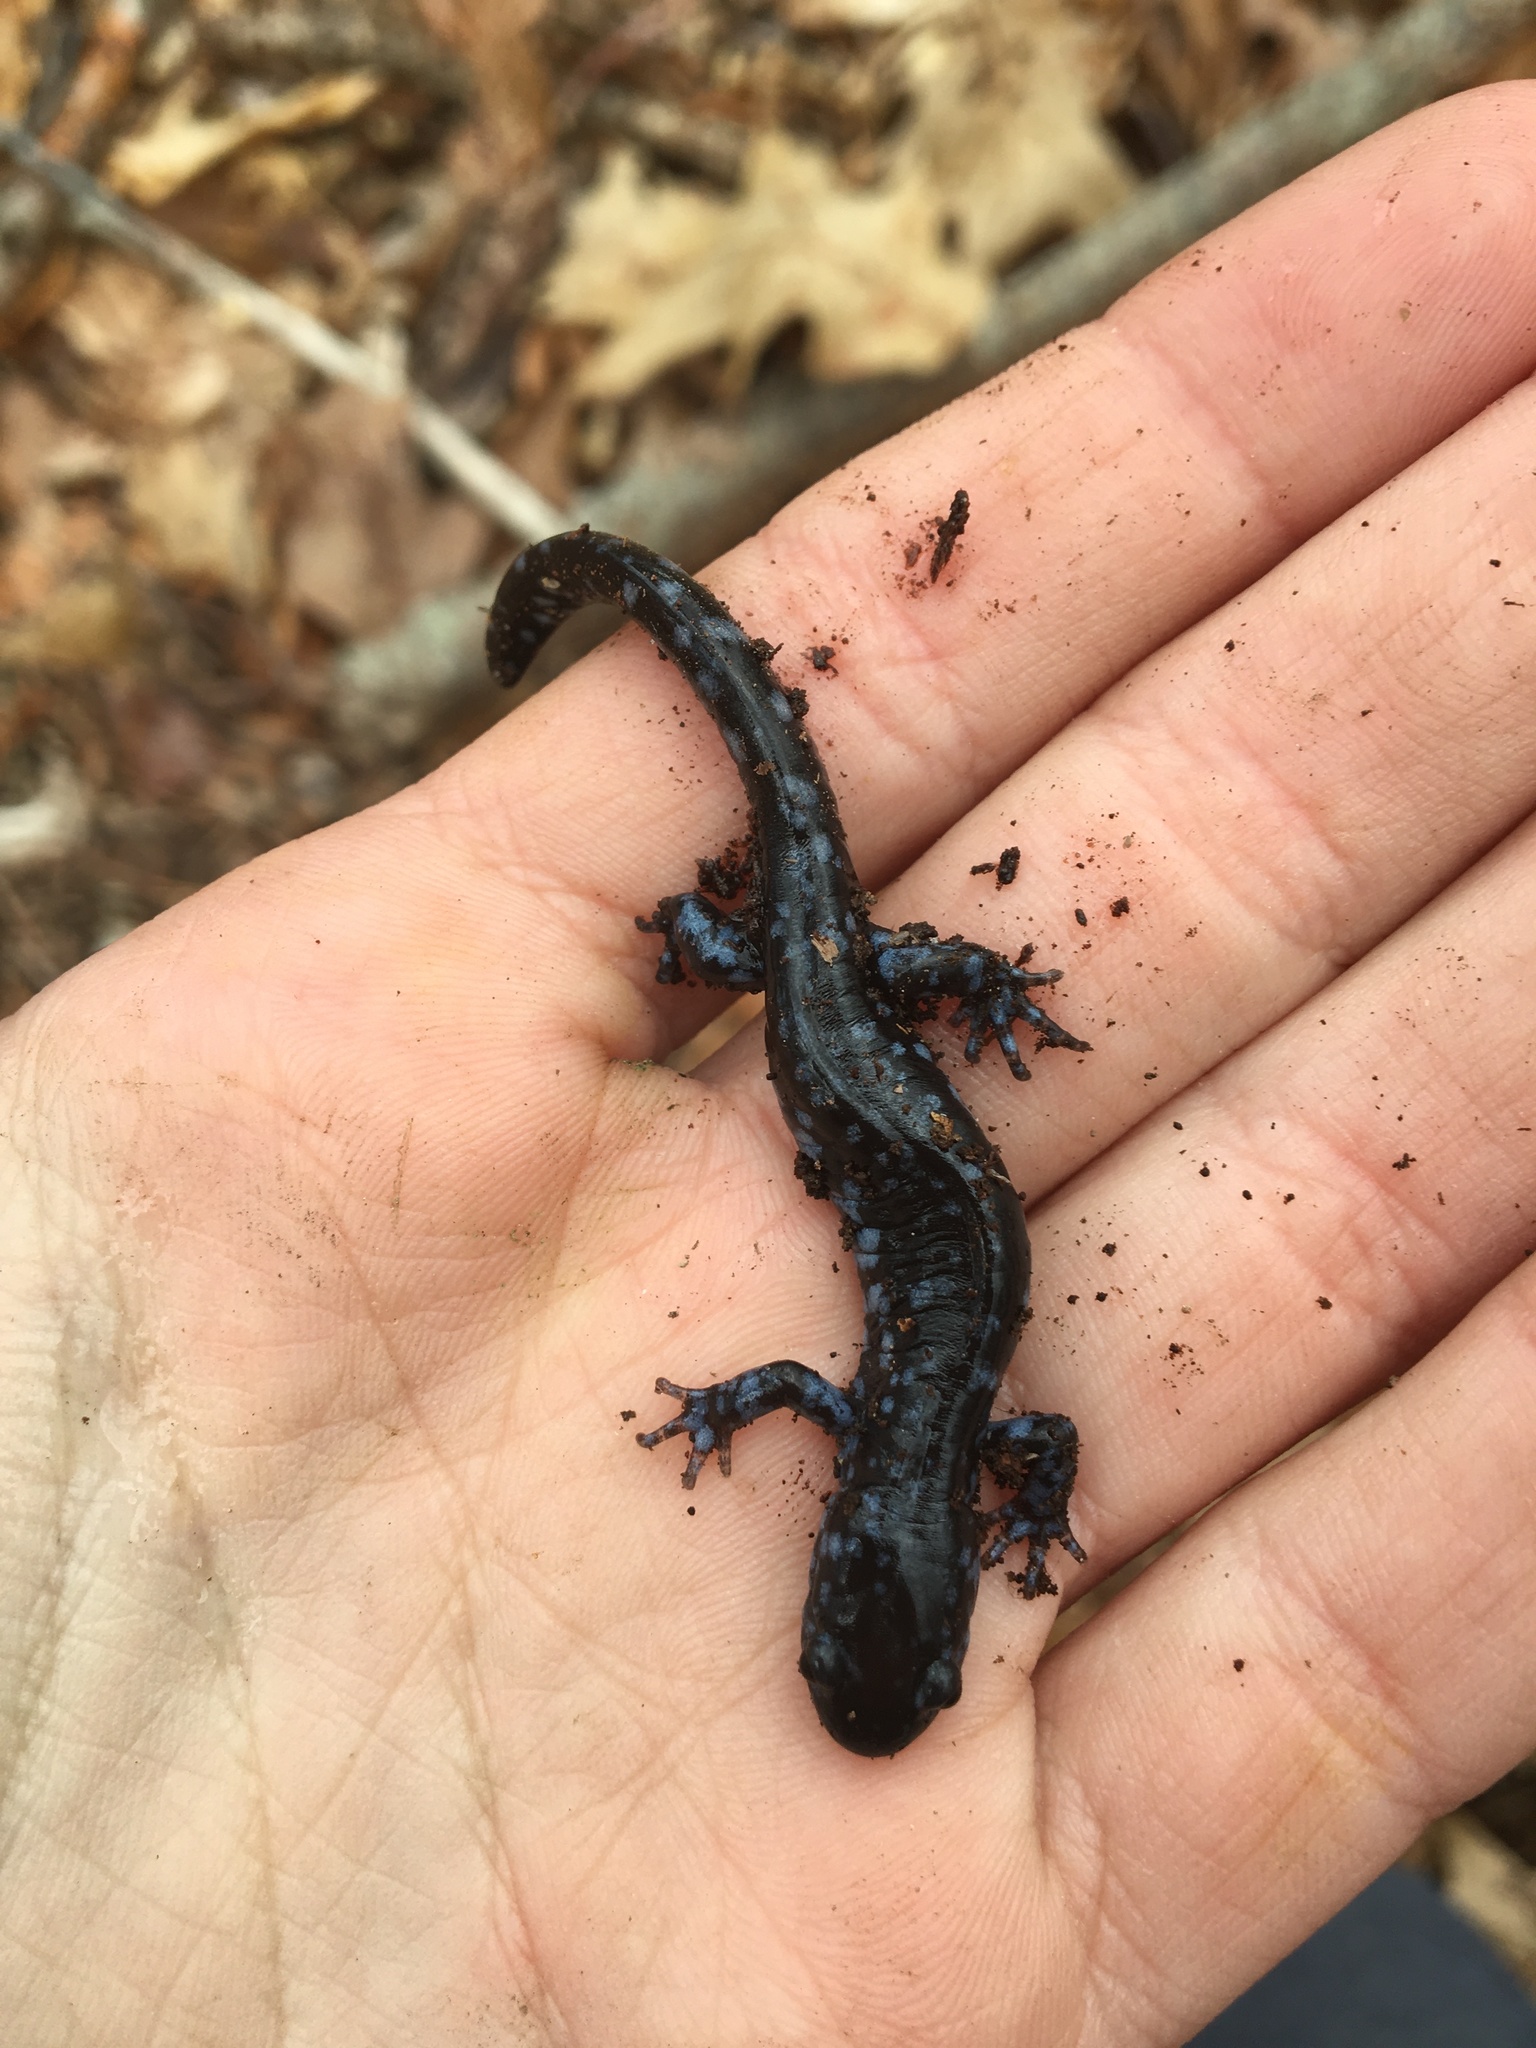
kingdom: Animalia
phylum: Chordata
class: Amphibia
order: Caudata
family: Ambystomatidae
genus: Ambystoma
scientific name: Ambystoma laterale
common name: Blue-spotted salamander
